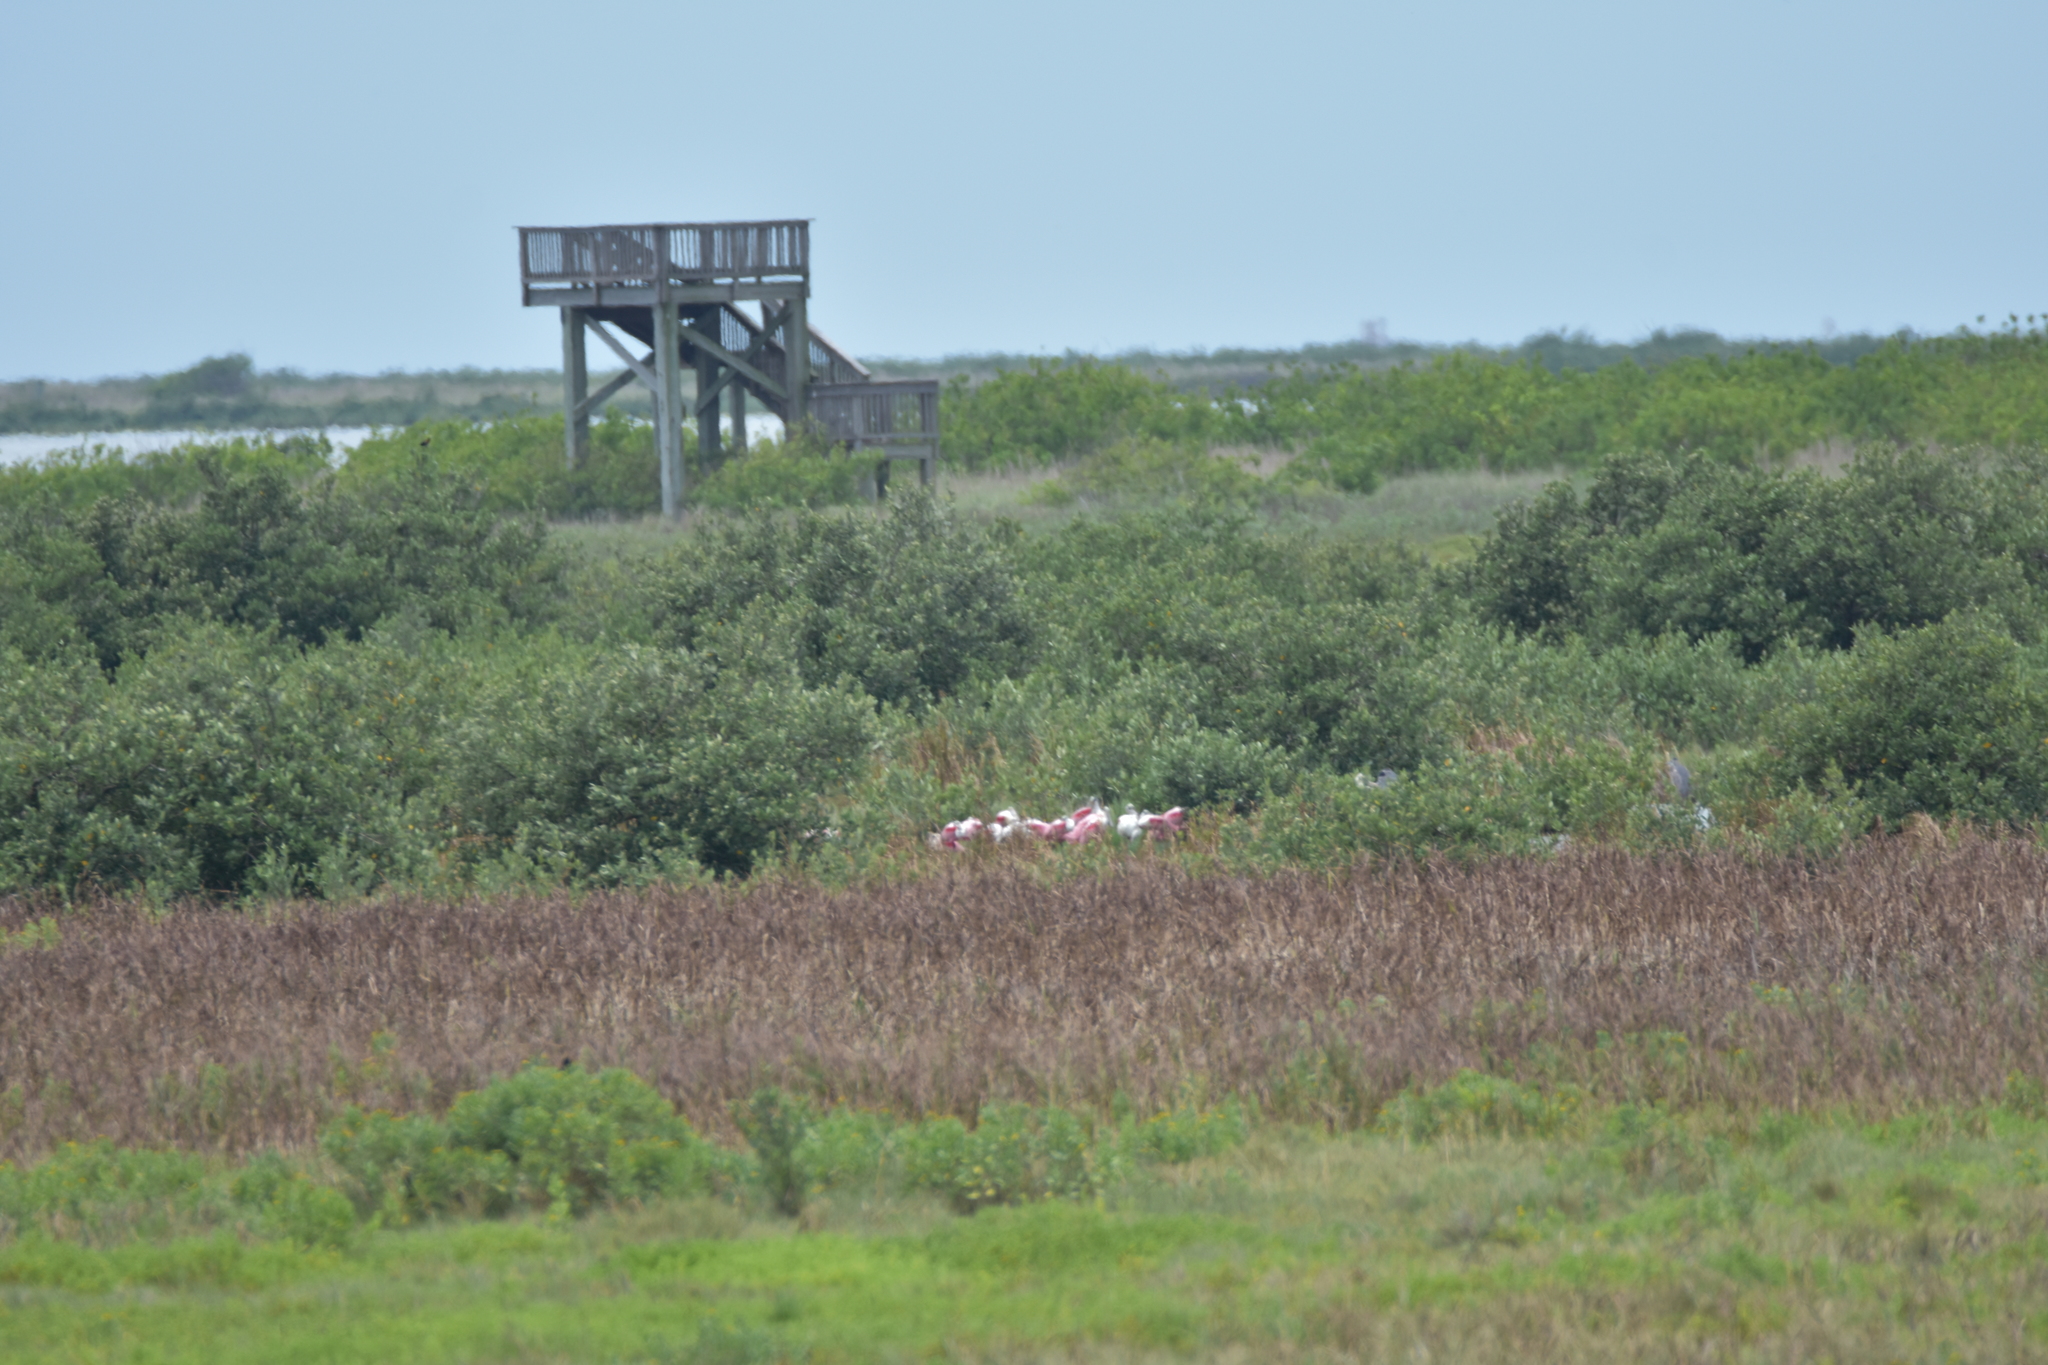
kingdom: Animalia
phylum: Chordata
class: Aves
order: Pelecaniformes
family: Threskiornithidae
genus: Platalea
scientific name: Platalea ajaja
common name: Roseate spoonbill
